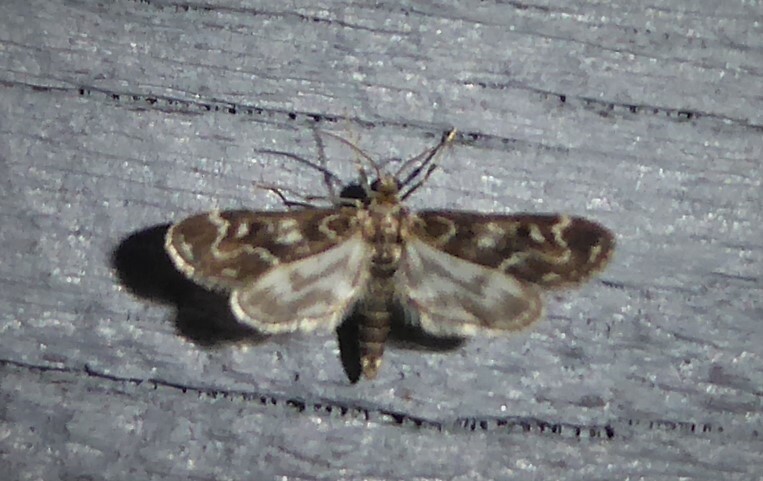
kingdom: Animalia
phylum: Arthropoda
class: Insecta
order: Lepidoptera
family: Crambidae
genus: Hygraula
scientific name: Hygraula nitens
